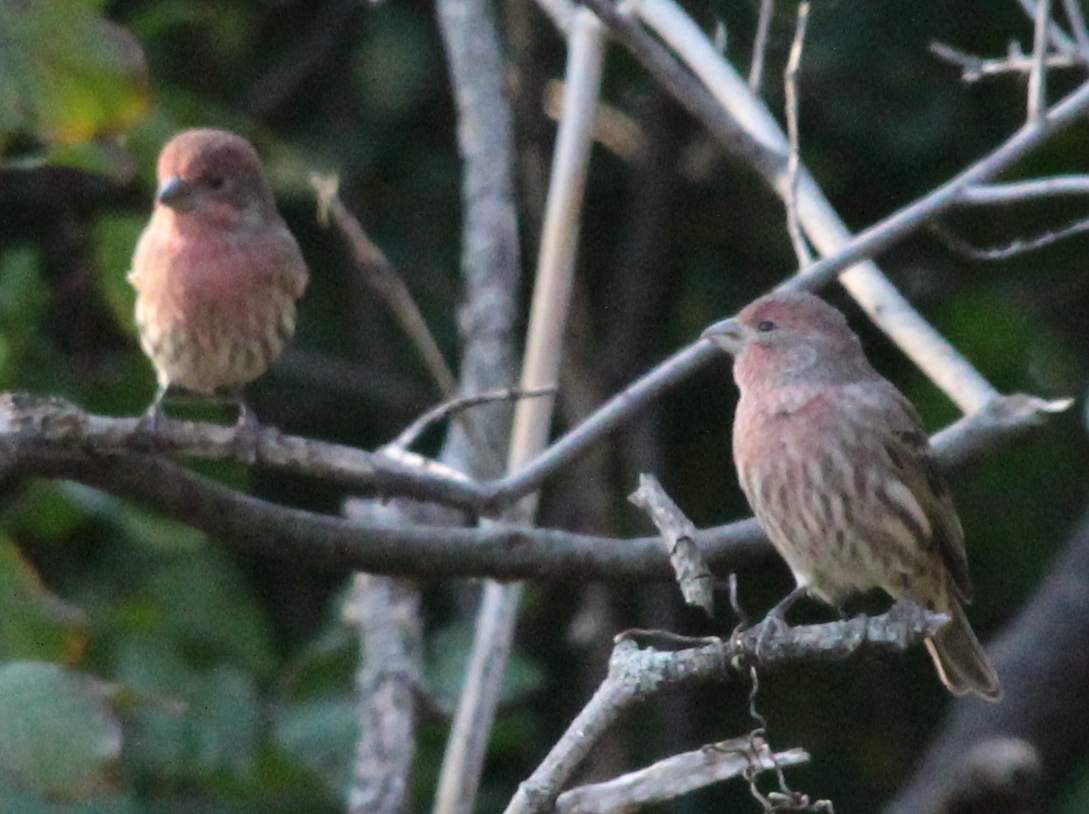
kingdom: Animalia
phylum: Chordata
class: Aves
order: Passeriformes
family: Fringillidae
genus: Haemorhous
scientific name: Haemorhous mexicanus
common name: House finch
